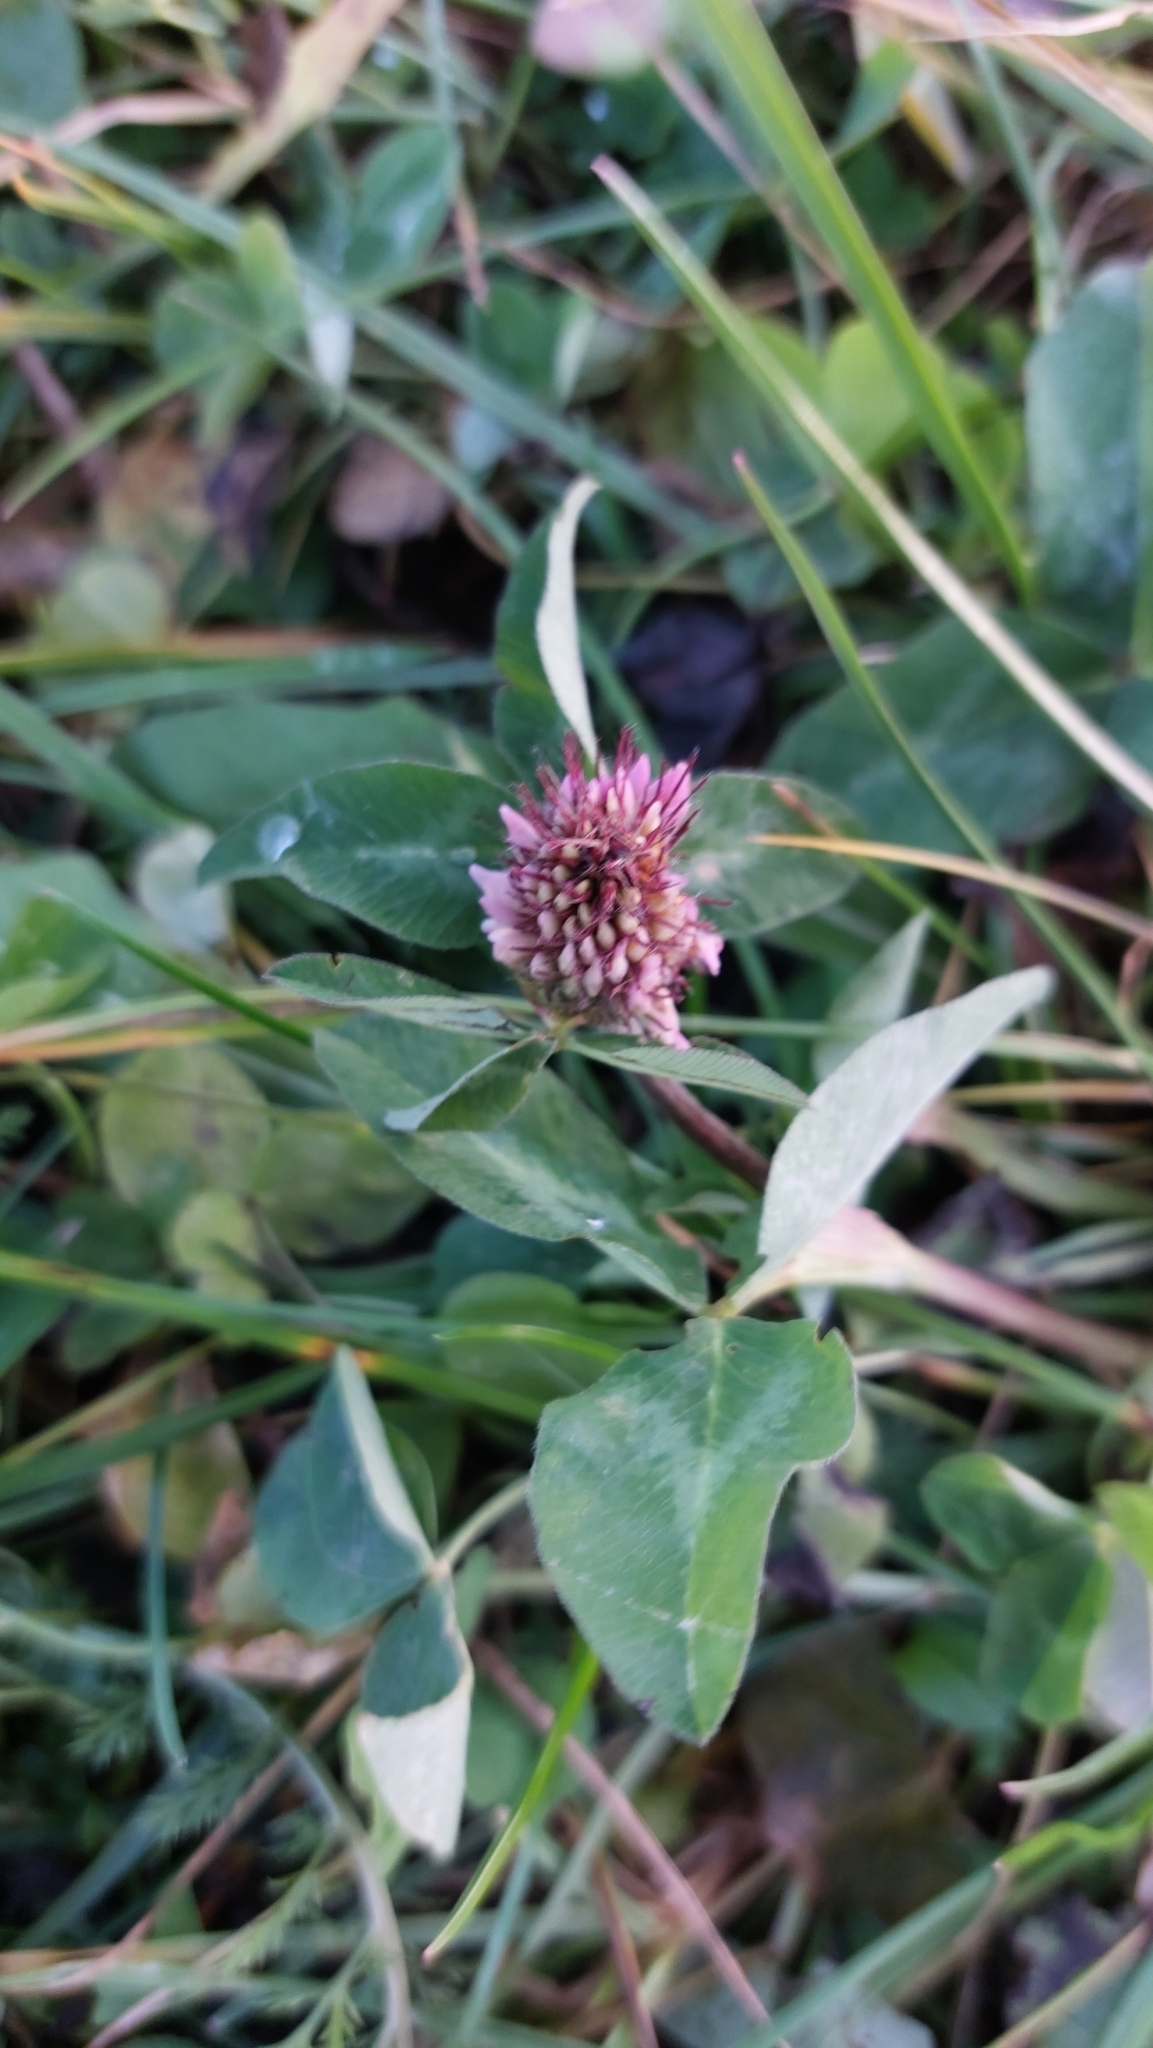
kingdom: Plantae
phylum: Tracheophyta
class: Magnoliopsida
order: Fabales
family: Fabaceae
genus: Trifolium
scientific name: Trifolium pratense
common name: Red clover
